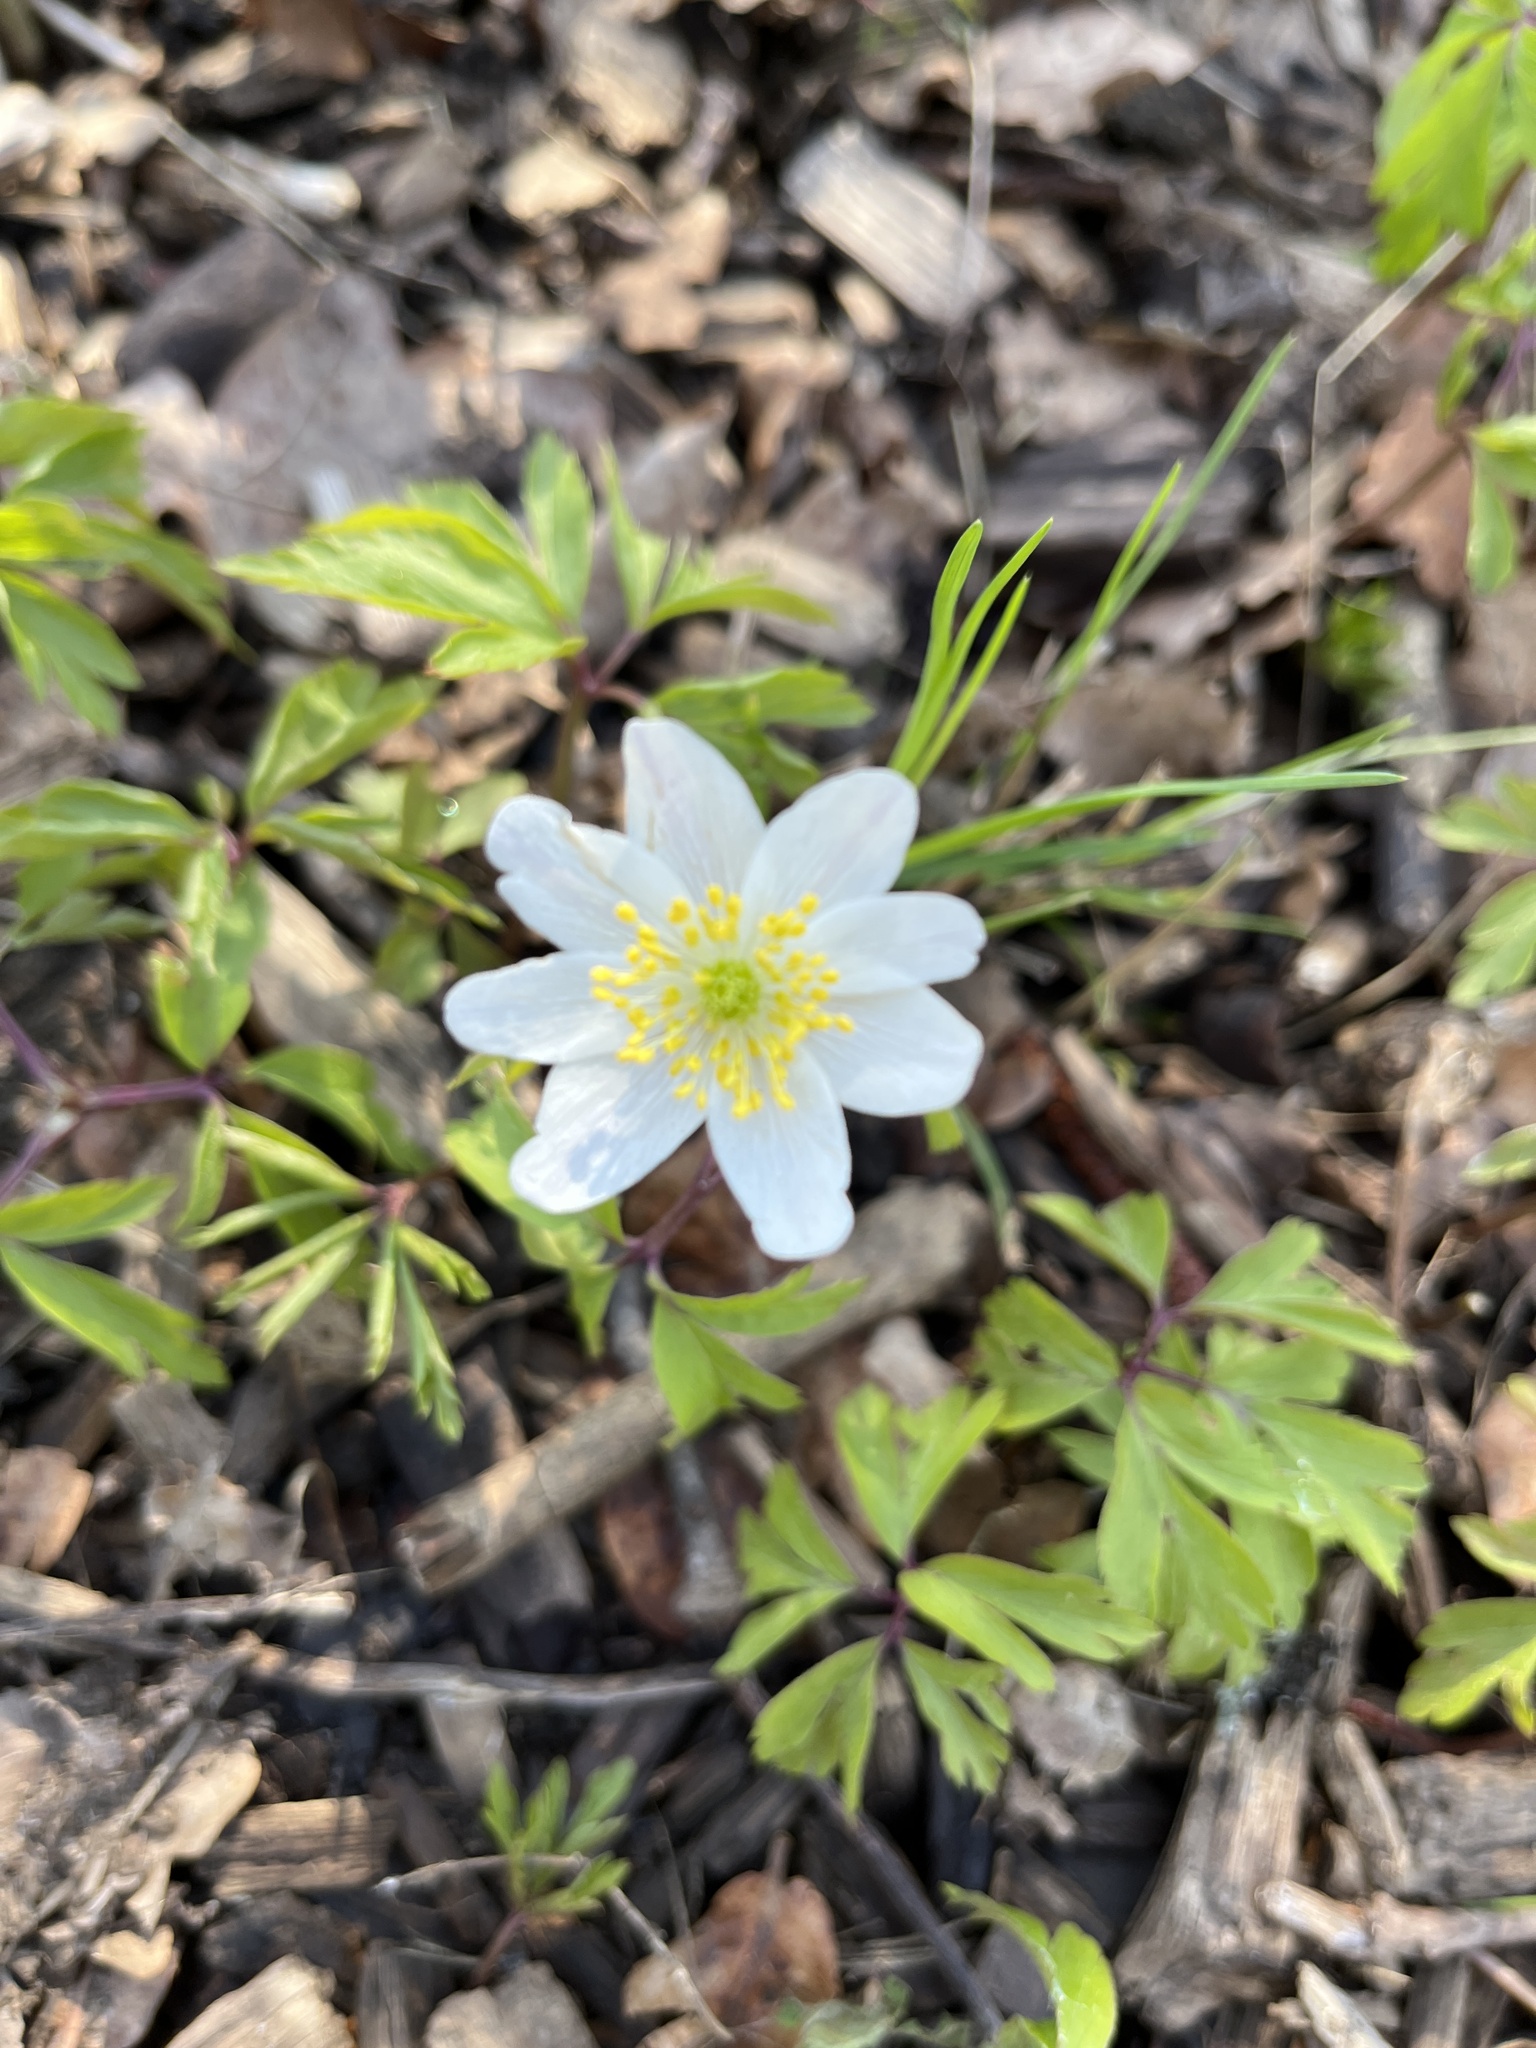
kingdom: Plantae
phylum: Tracheophyta
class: Magnoliopsida
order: Ranunculales
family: Ranunculaceae
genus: Anemone
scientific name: Anemone nemorosa
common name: Wood anemone
